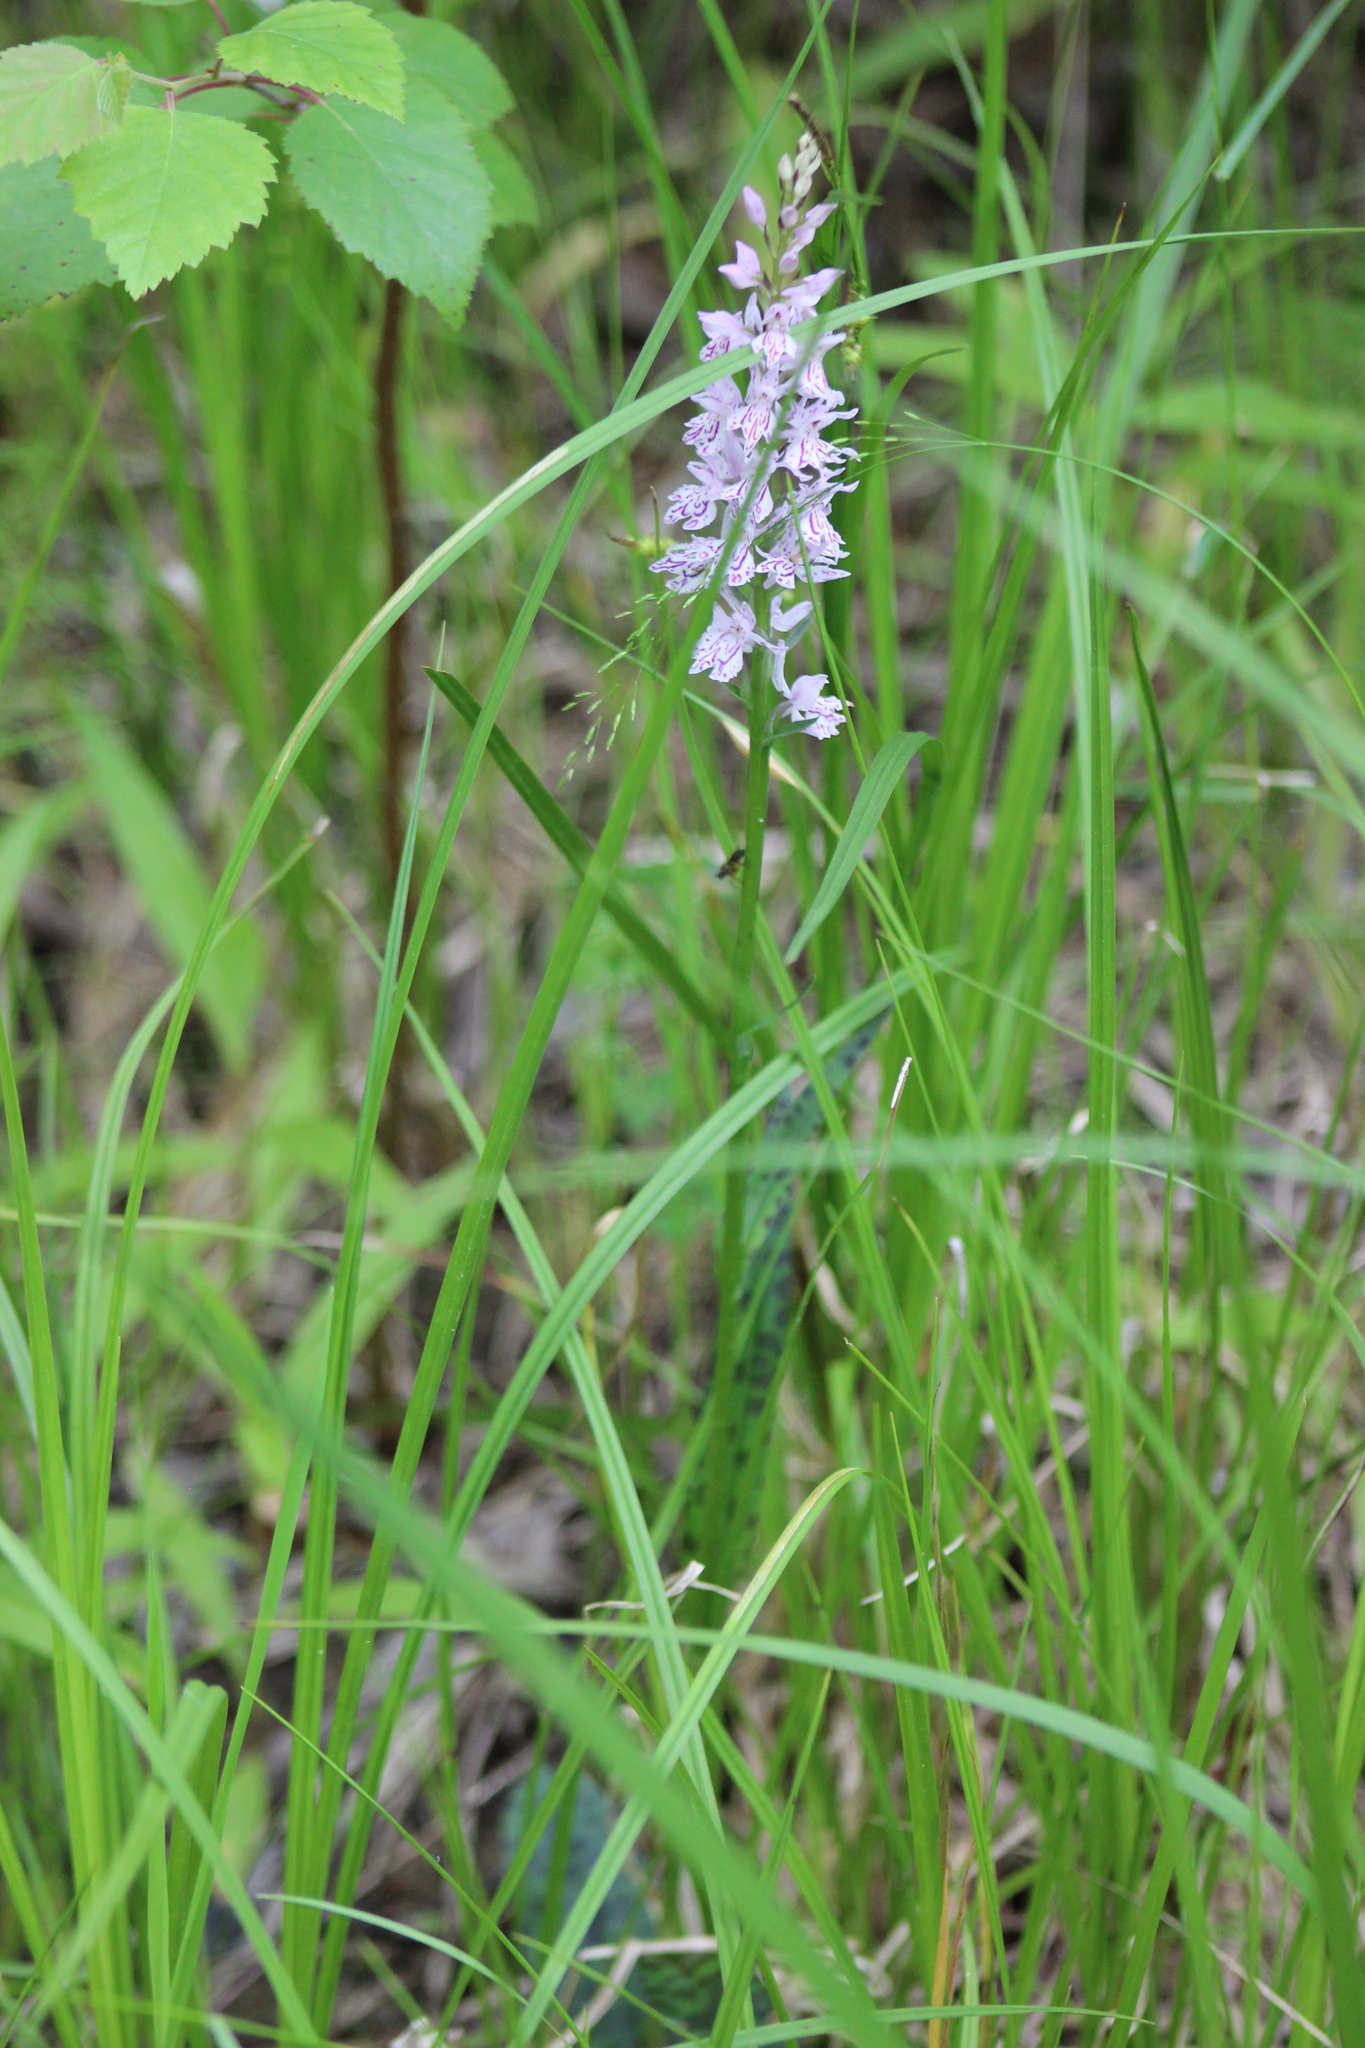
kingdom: Plantae
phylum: Tracheophyta
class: Liliopsida
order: Asparagales
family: Orchidaceae
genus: Dactylorhiza
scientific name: Dactylorhiza maculata
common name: Heath spotted-orchid
